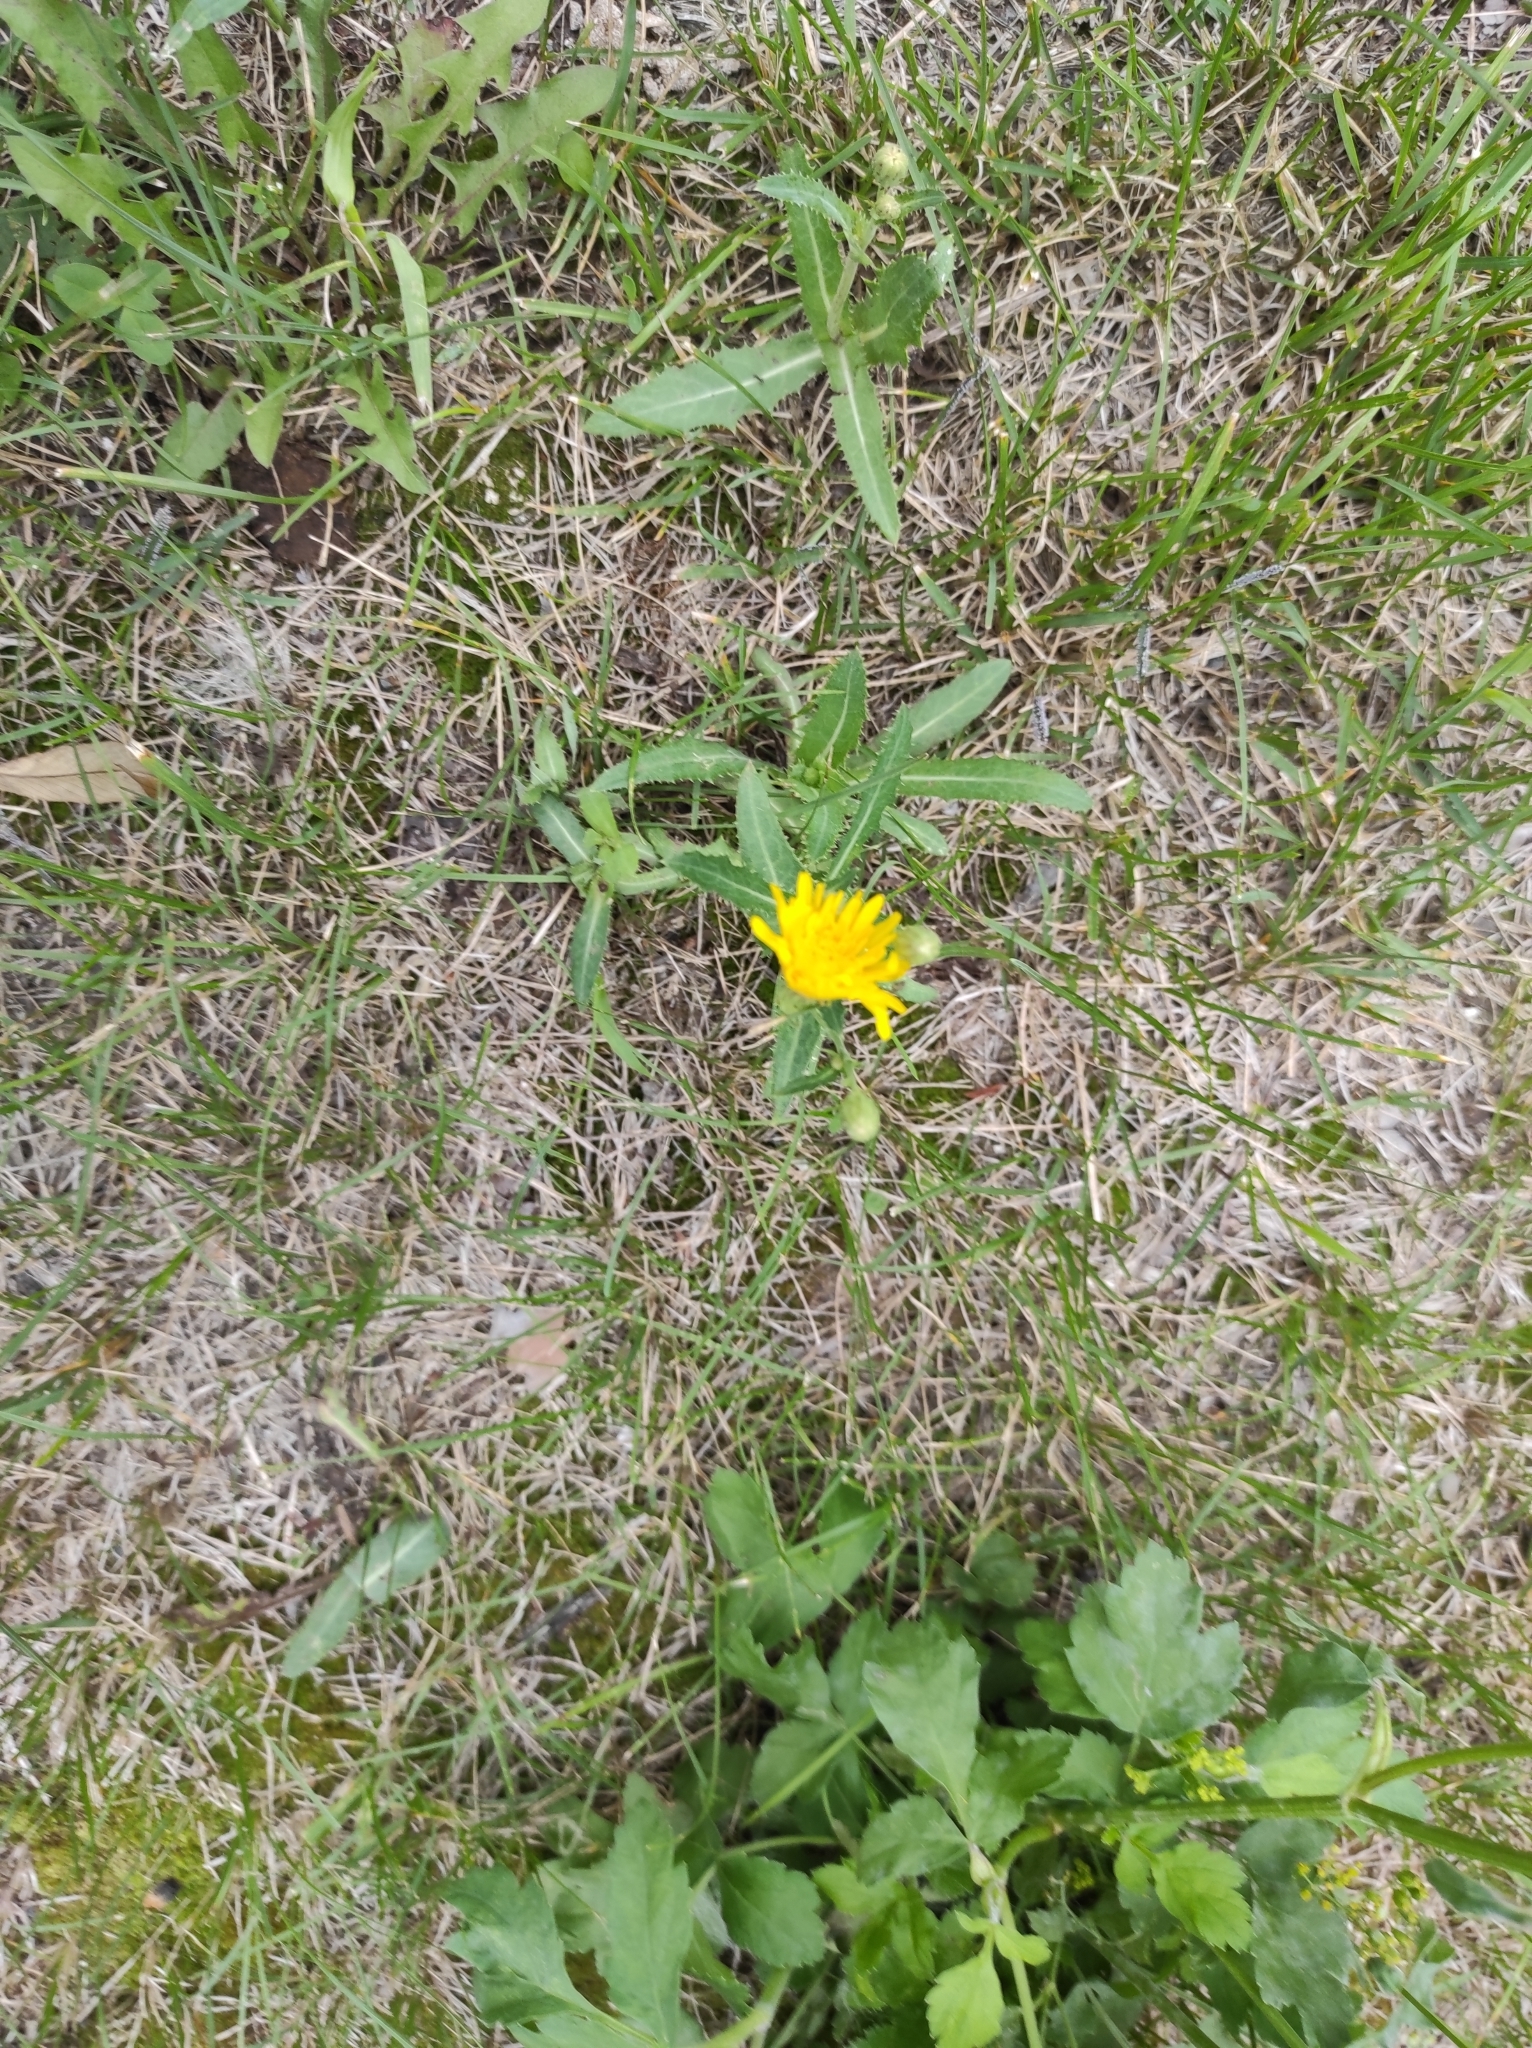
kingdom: Plantae
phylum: Tracheophyta
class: Magnoliopsida
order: Asterales
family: Asteraceae
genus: Sonchus
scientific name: Sonchus arvensis
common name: Perennial sow-thistle
